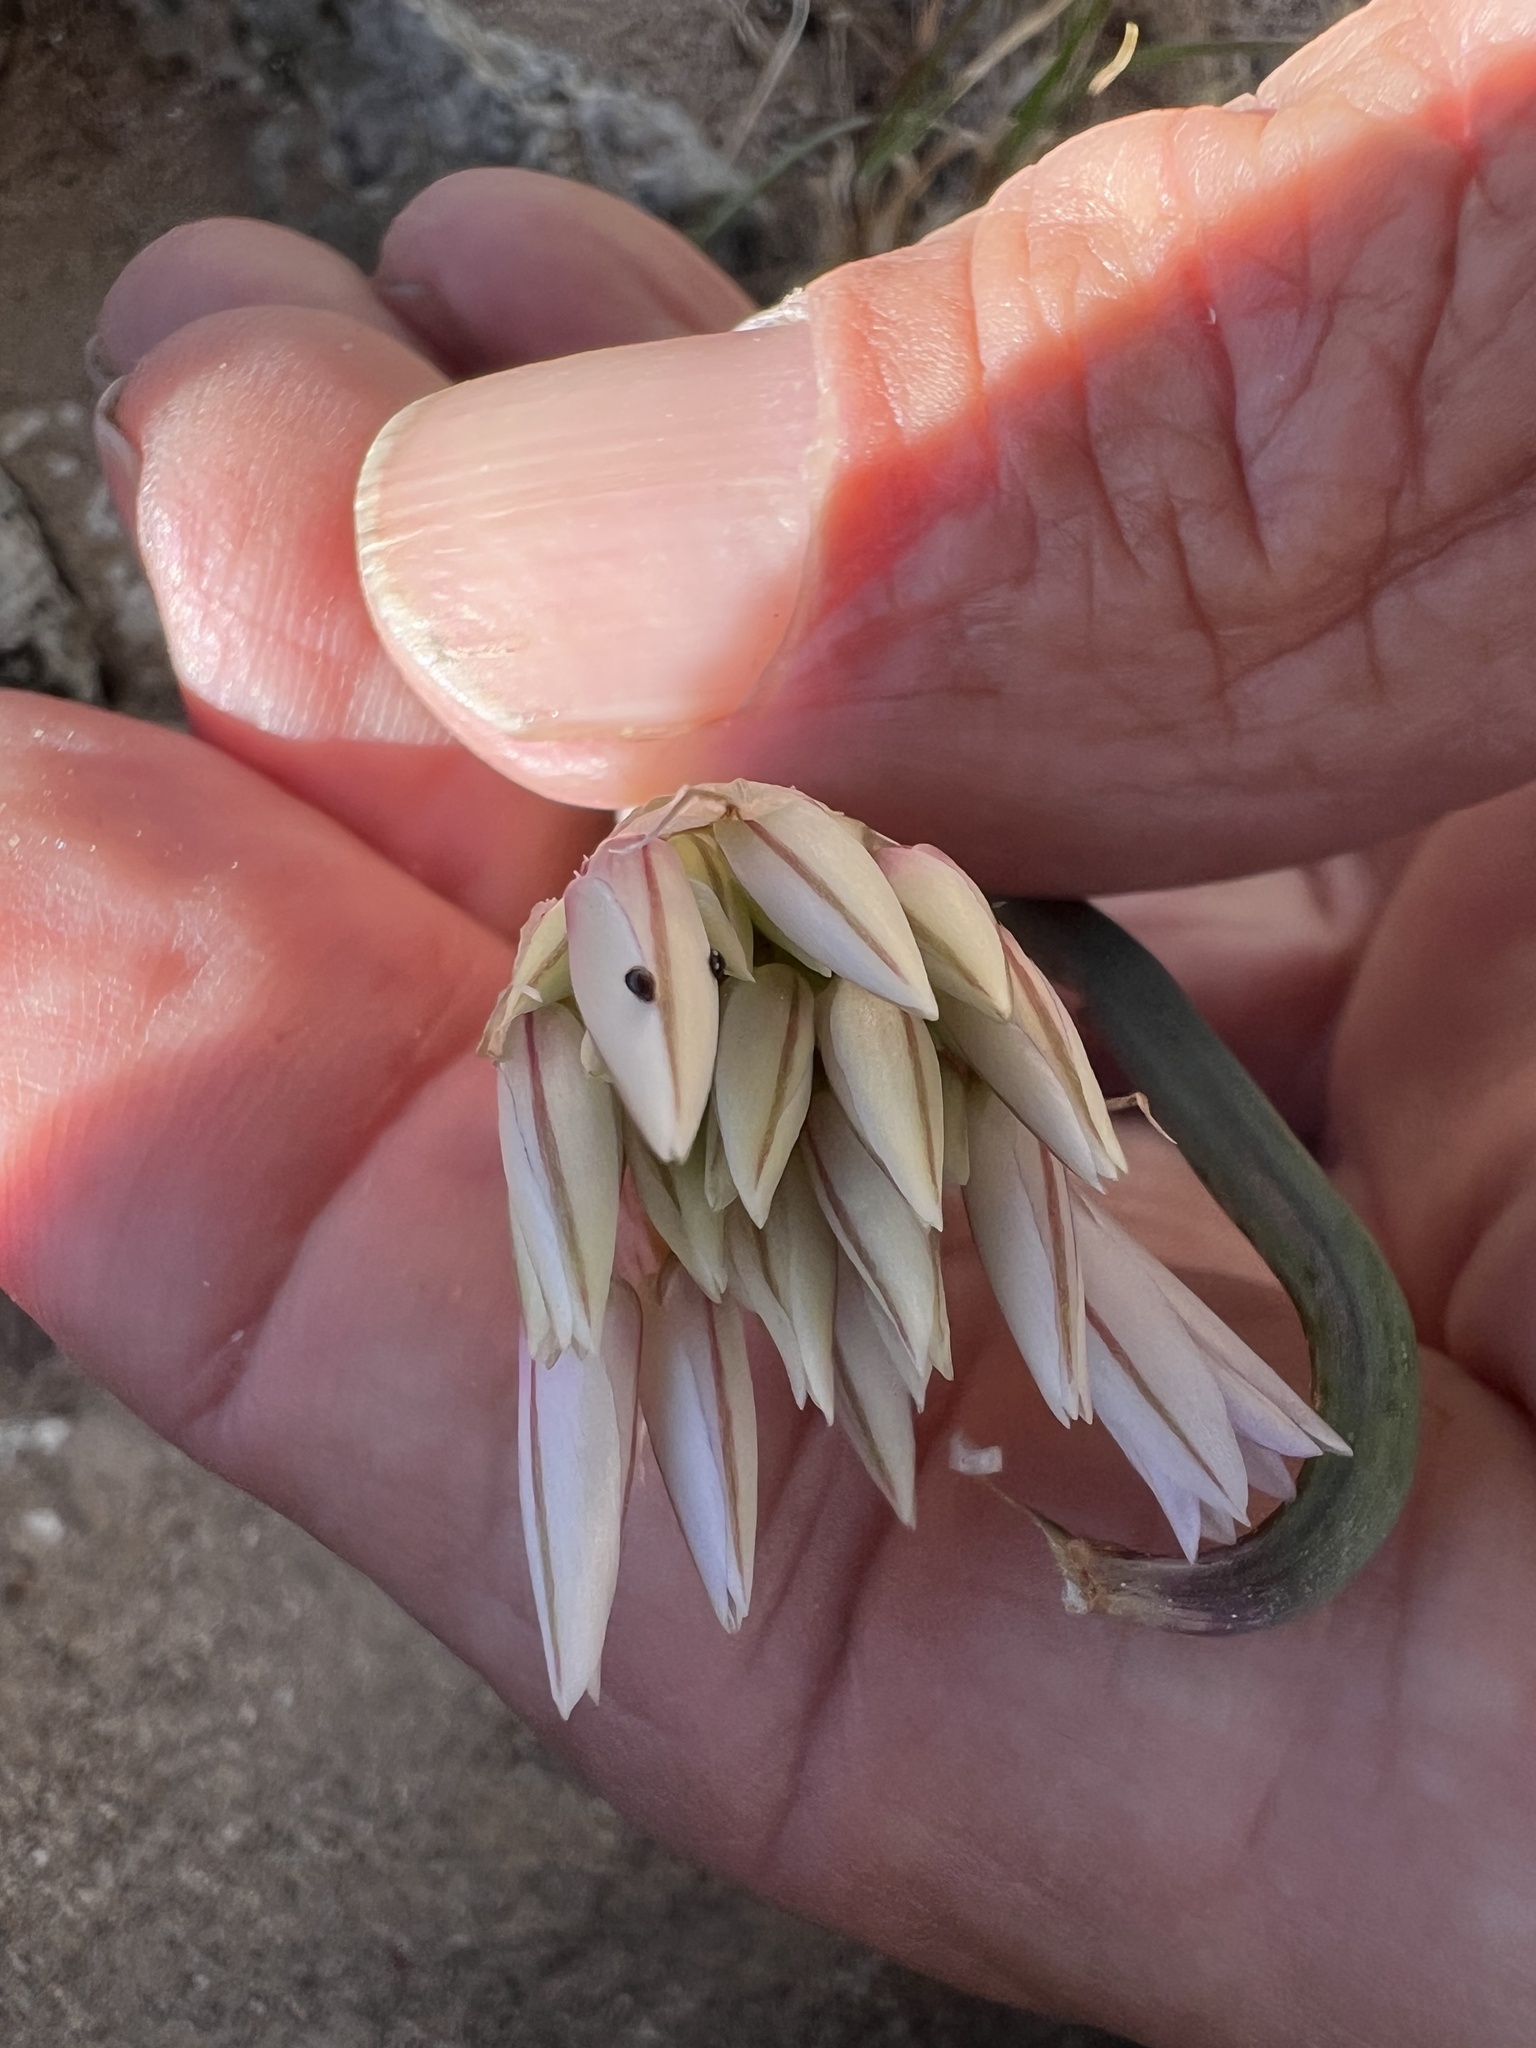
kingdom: Plantae
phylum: Tracheophyta
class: Liliopsida
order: Asparagales
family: Amaryllidaceae
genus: Allium
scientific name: Allium atrorubens
